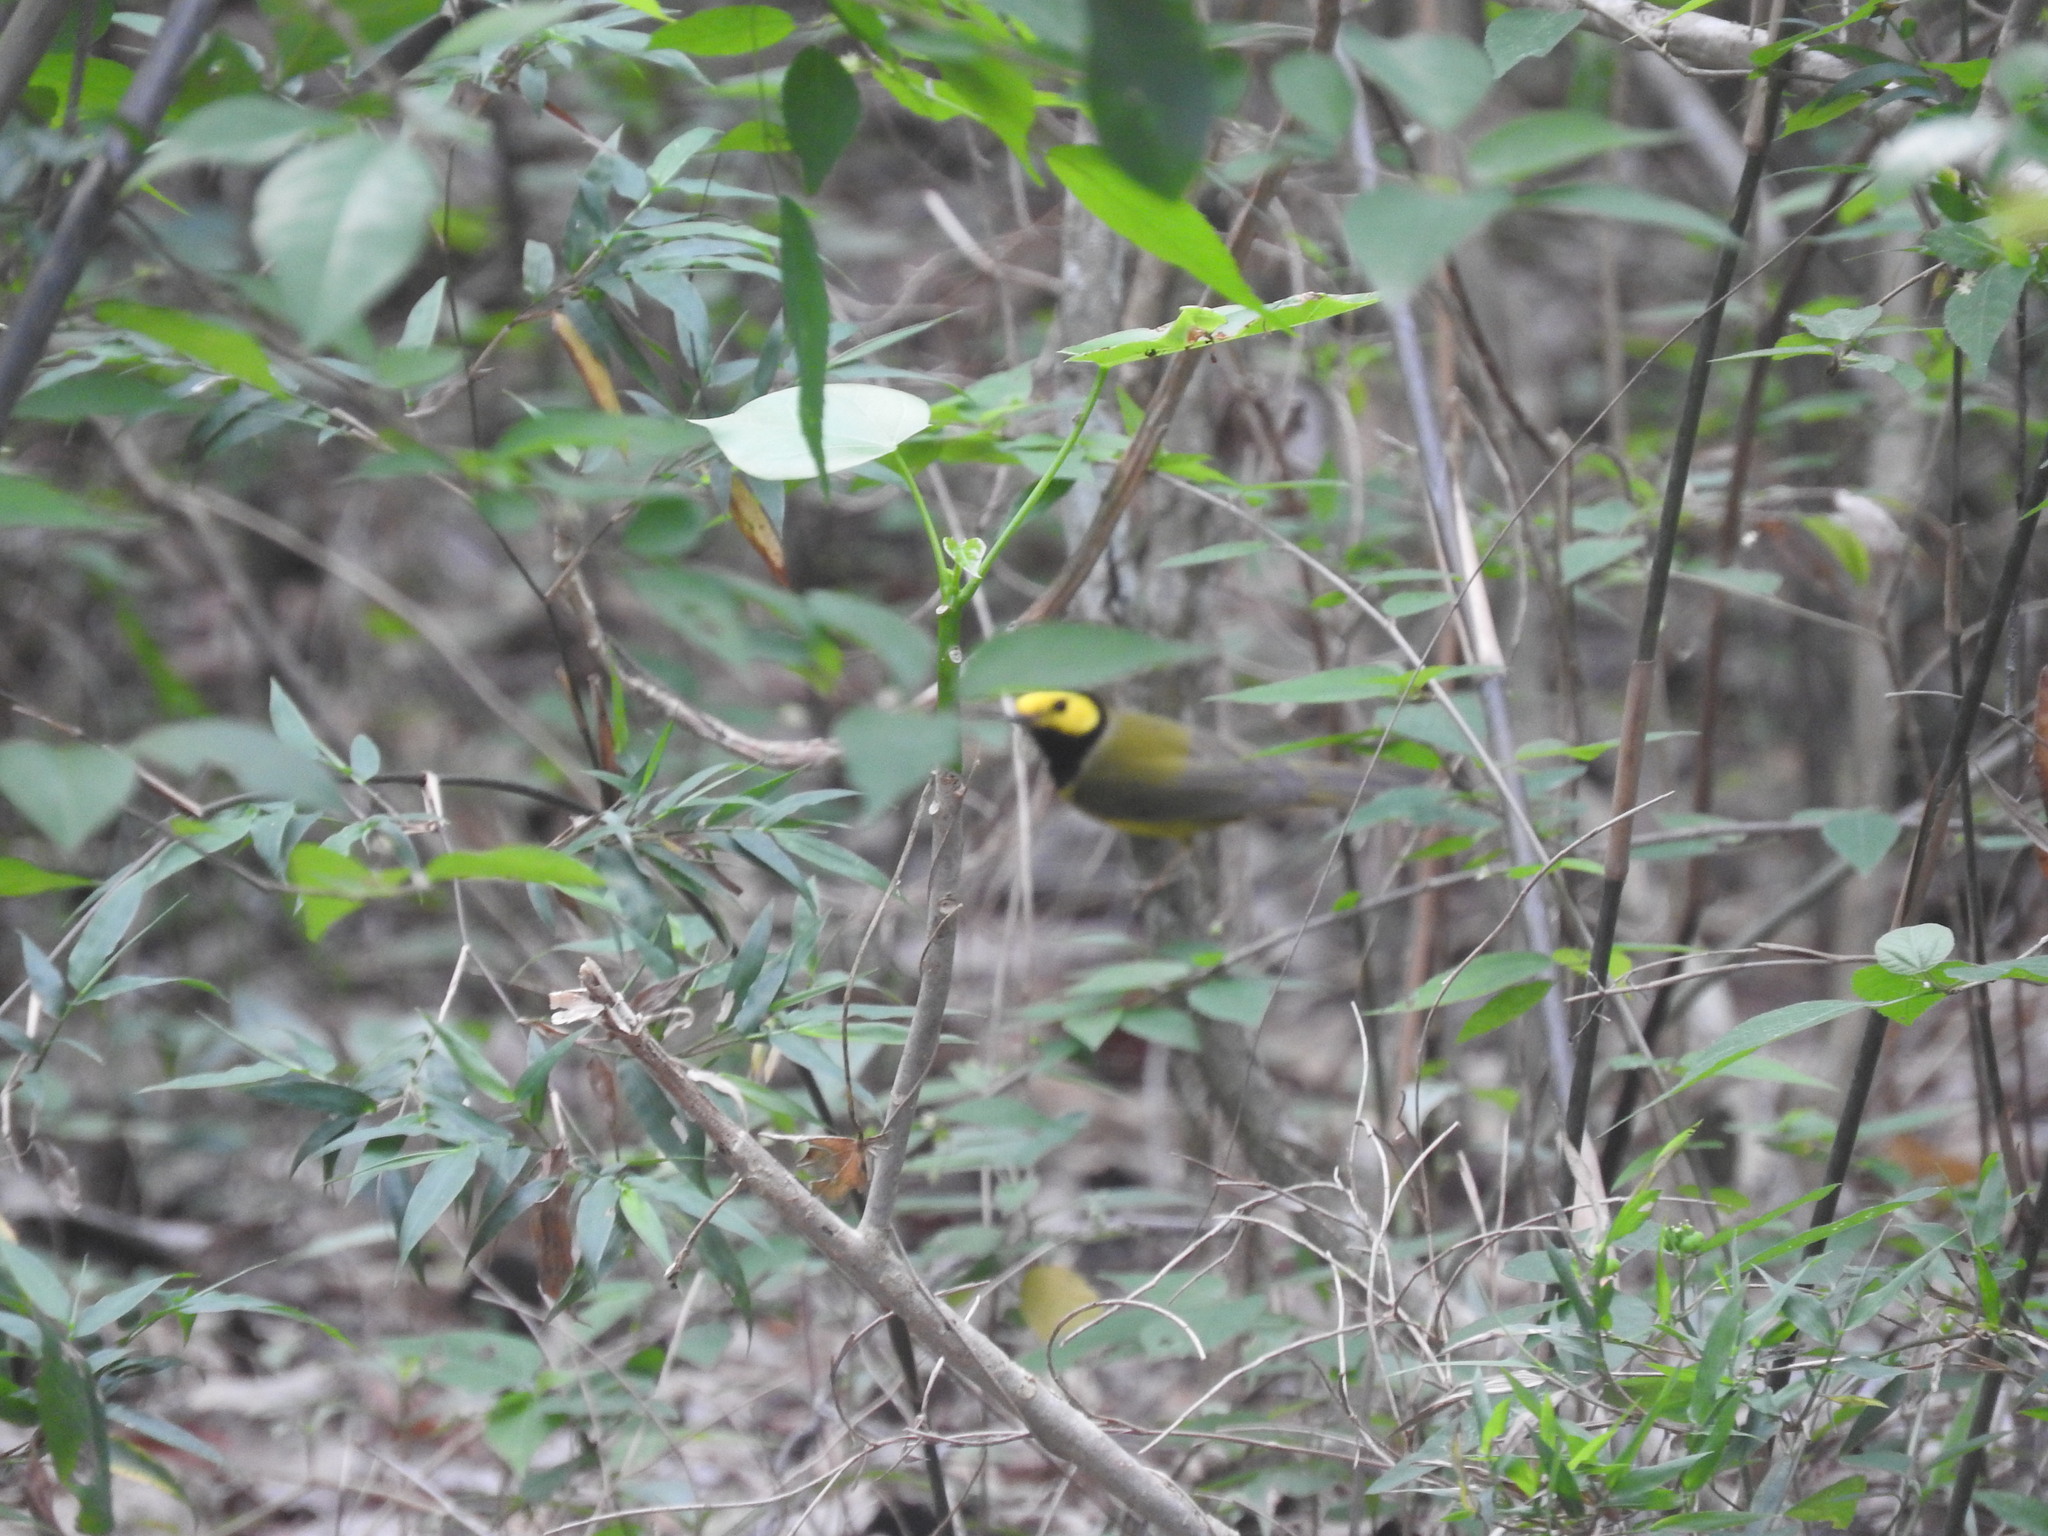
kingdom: Animalia
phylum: Chordata
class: Aves
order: Passeriformes
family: Parulidae
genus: Setophaga
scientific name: Setophaga citrina
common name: Hooded warbler
